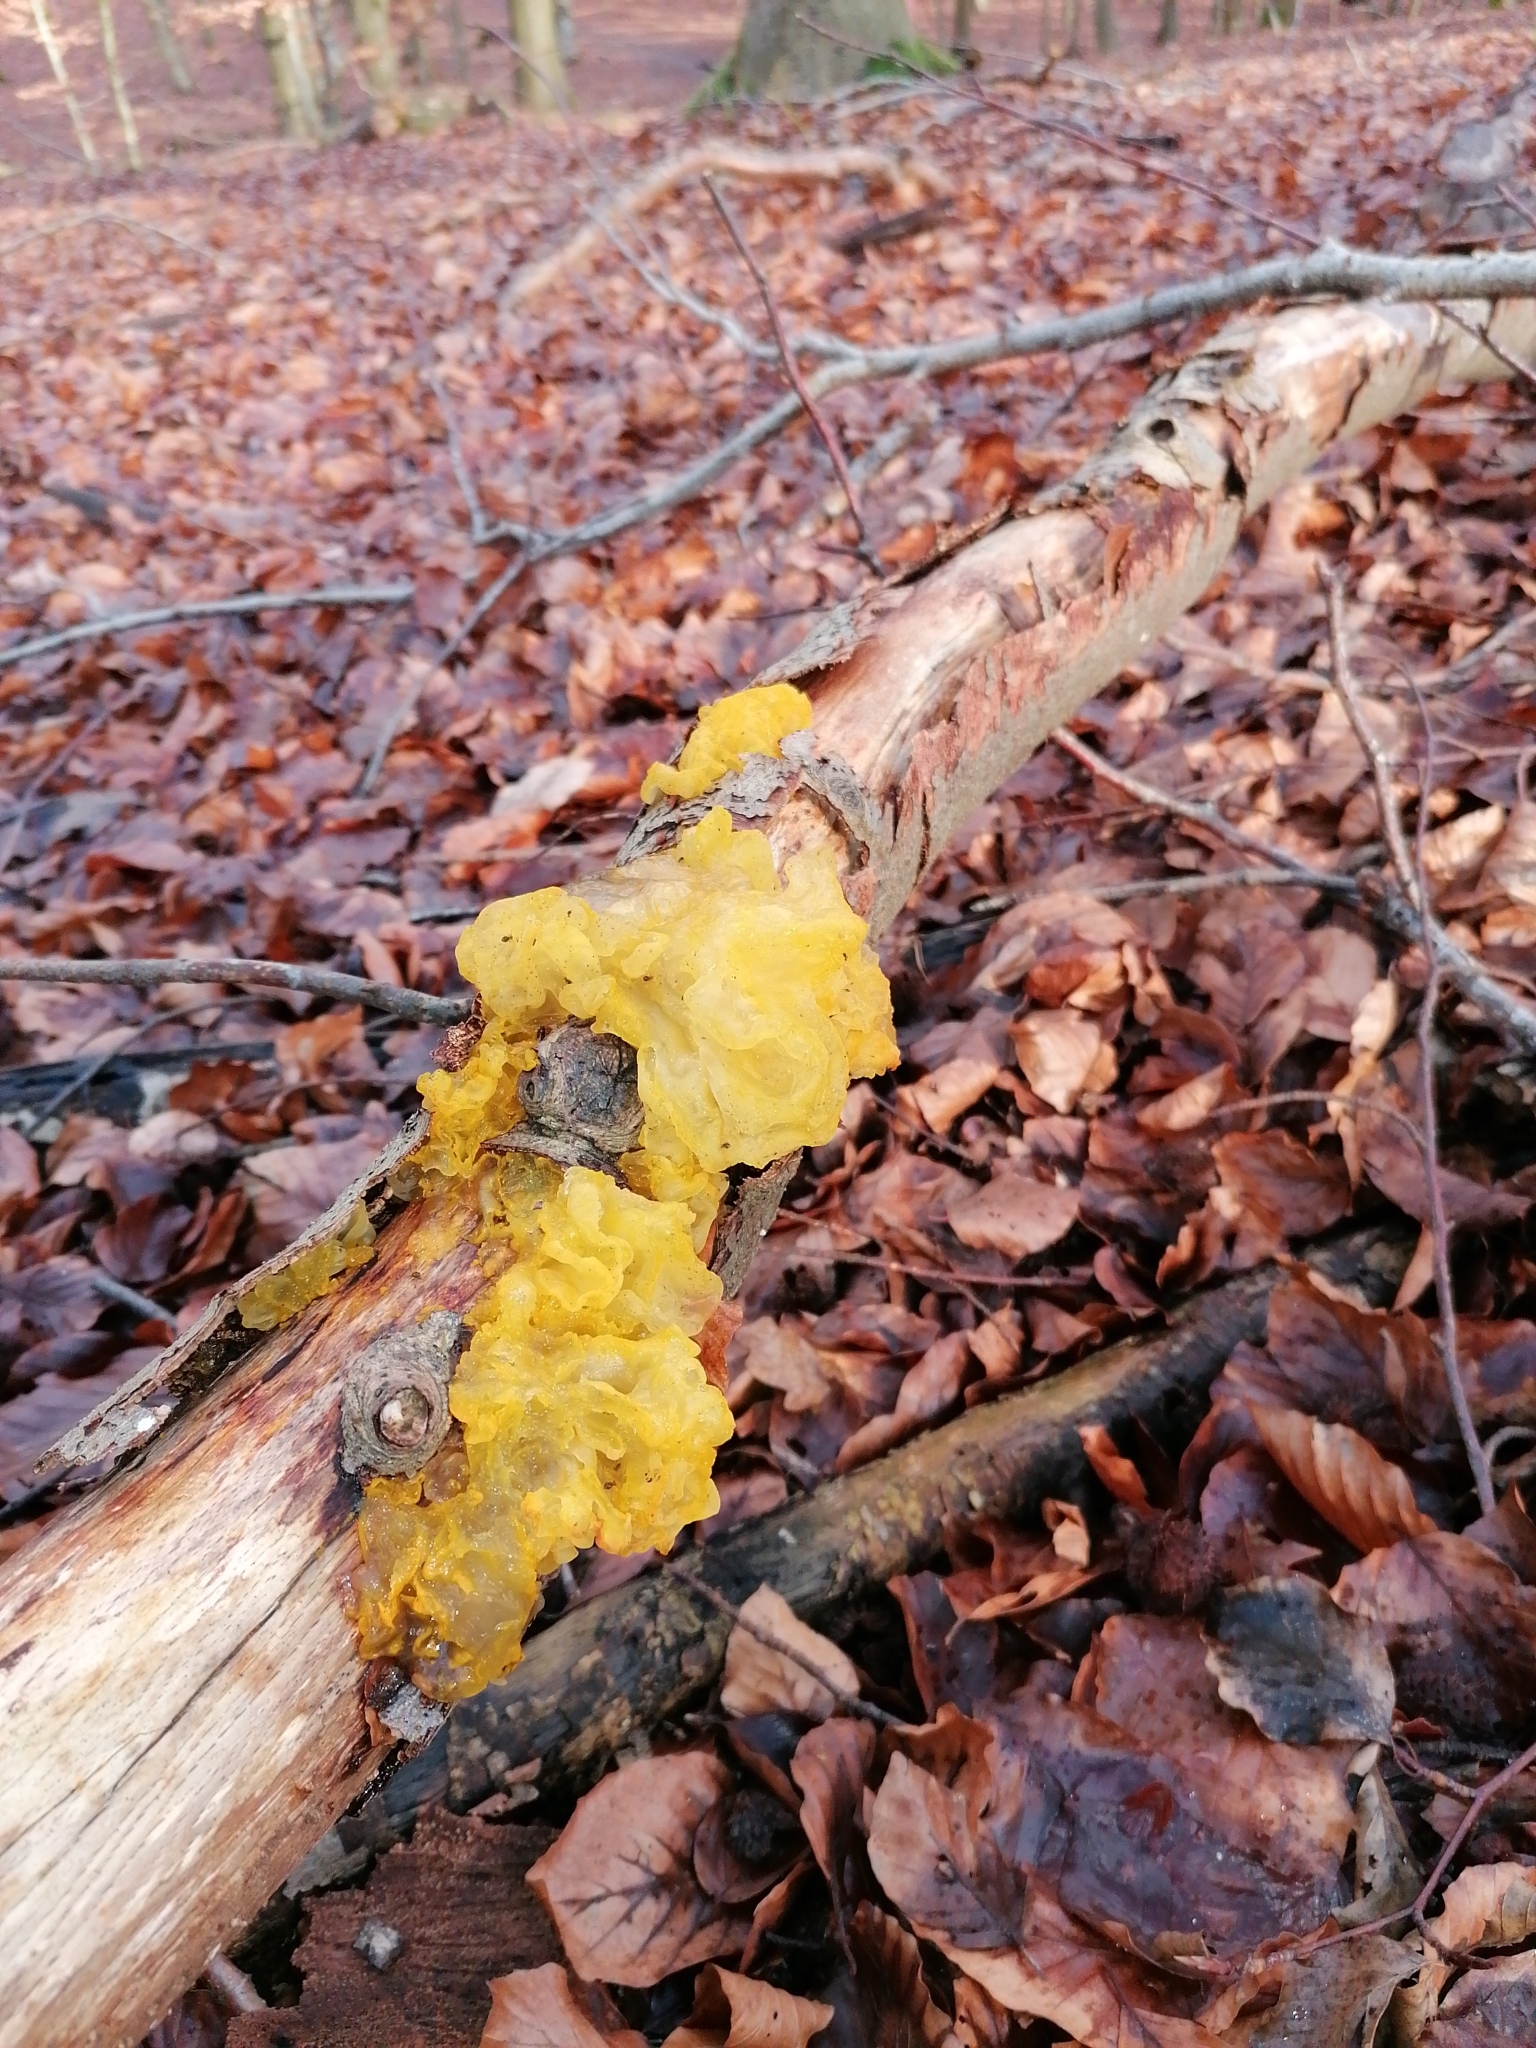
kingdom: Fungi
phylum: Basidiomycota
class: Tremellomycetes
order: Tremellales
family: Tremellaceae
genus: Tremella
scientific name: Tremella mesenterica
